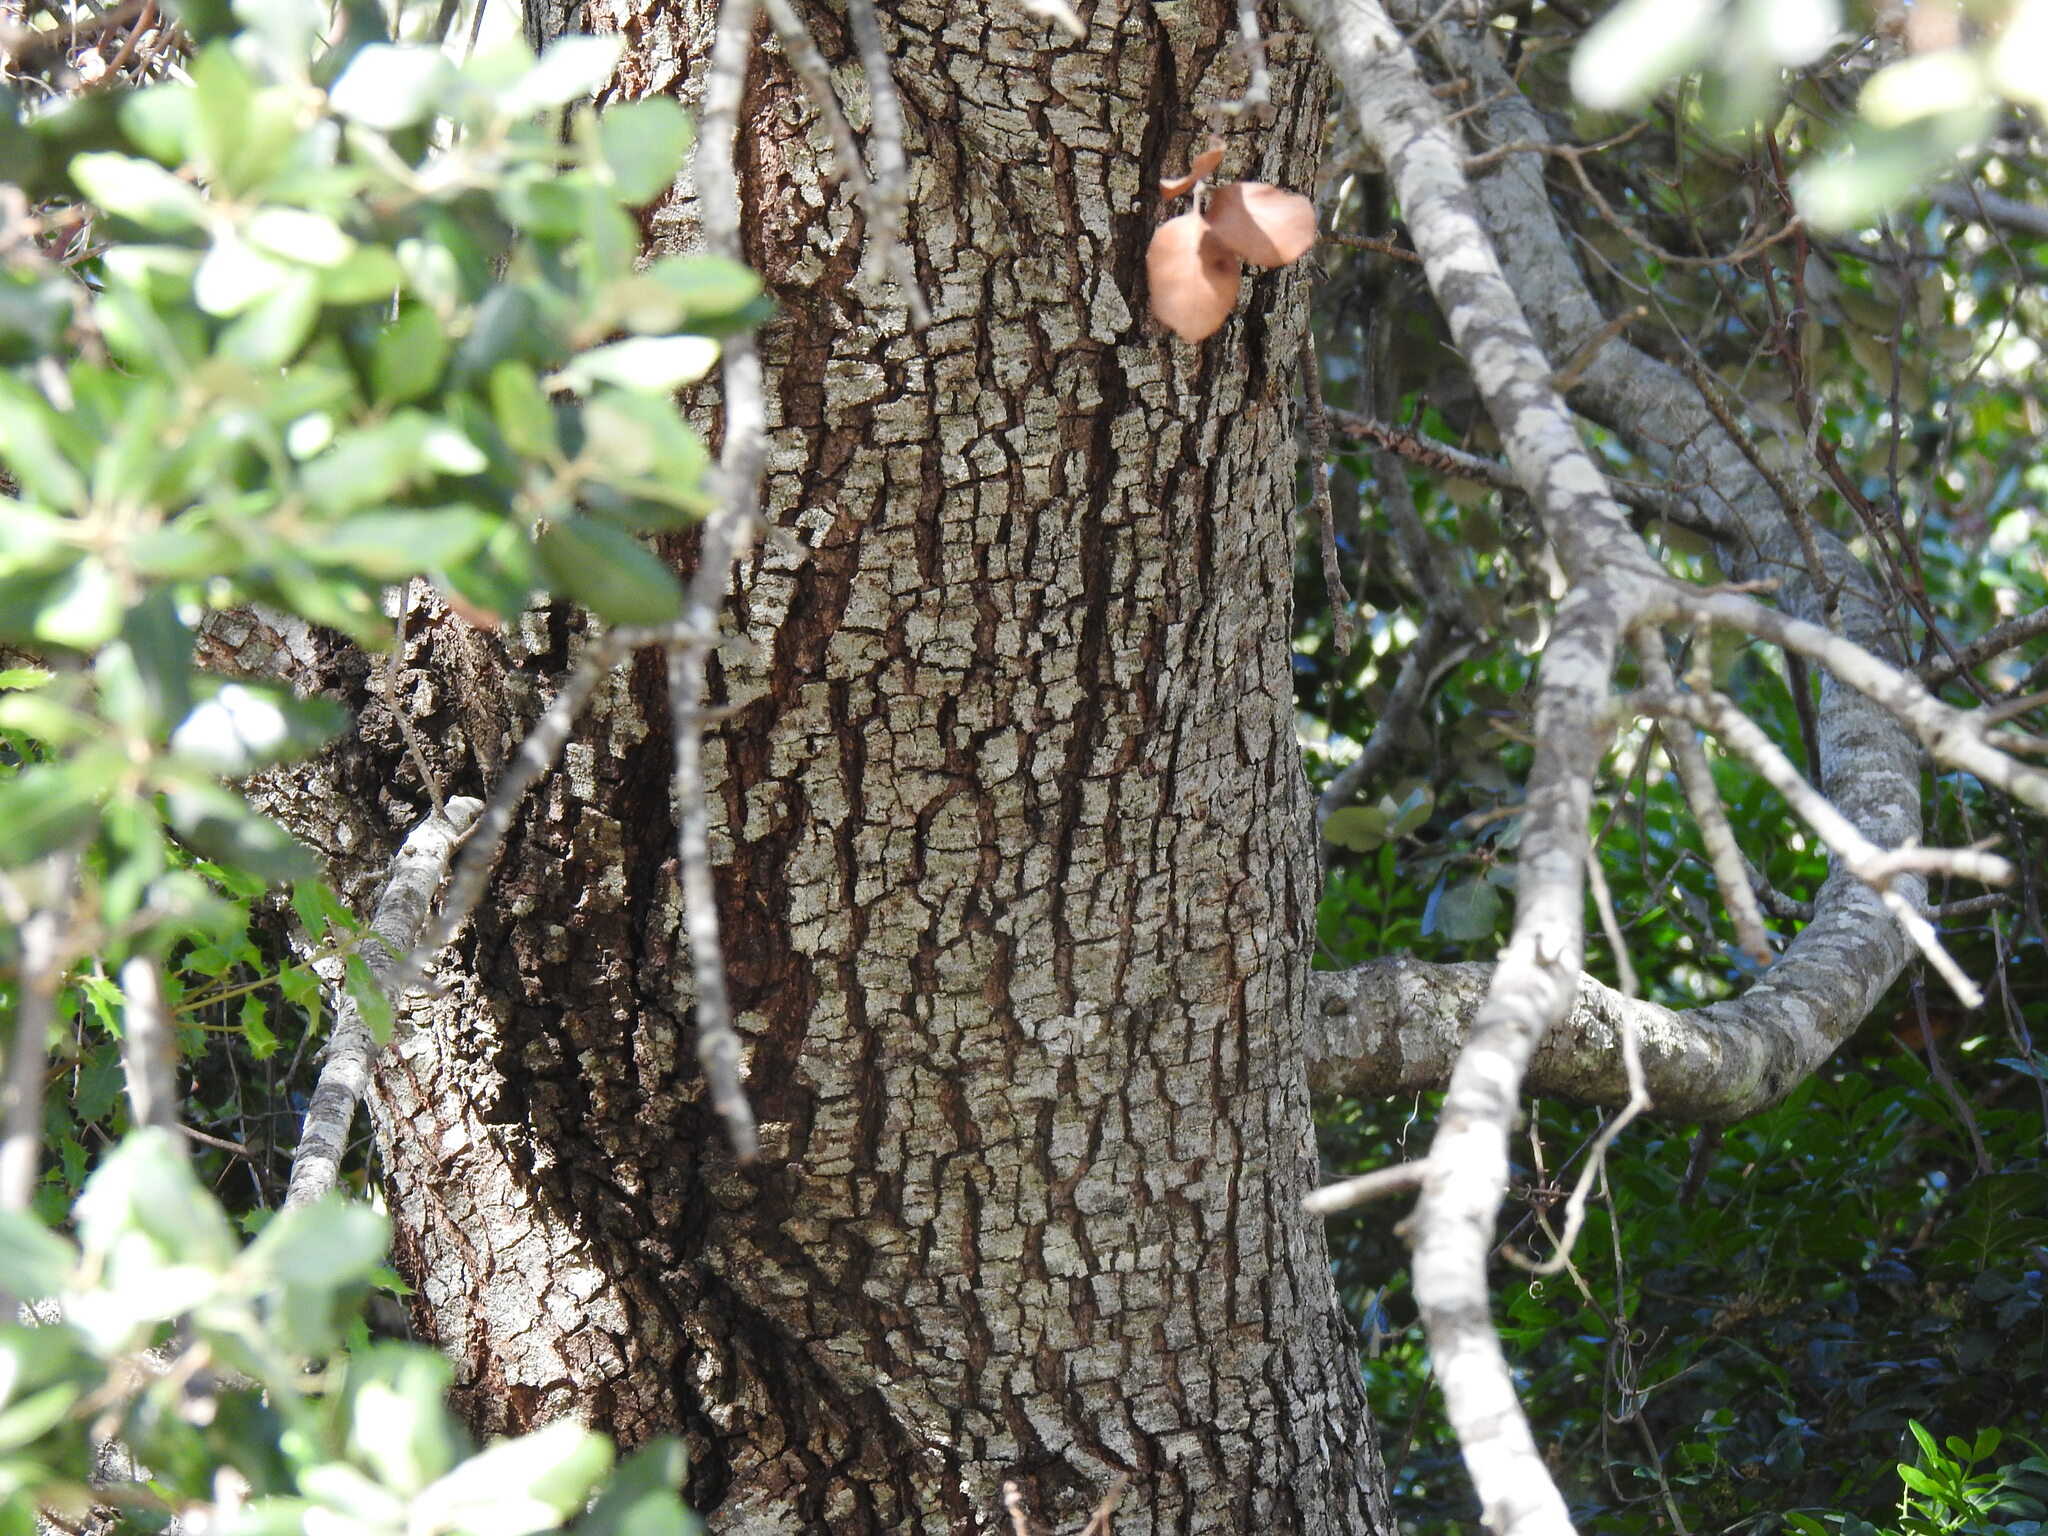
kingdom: Plantae
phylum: Tracheophyta
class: Magnoliopsida
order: Fagales
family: Fagaceae
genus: Quercus
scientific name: Quercus rotundifolia
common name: Holm oak
